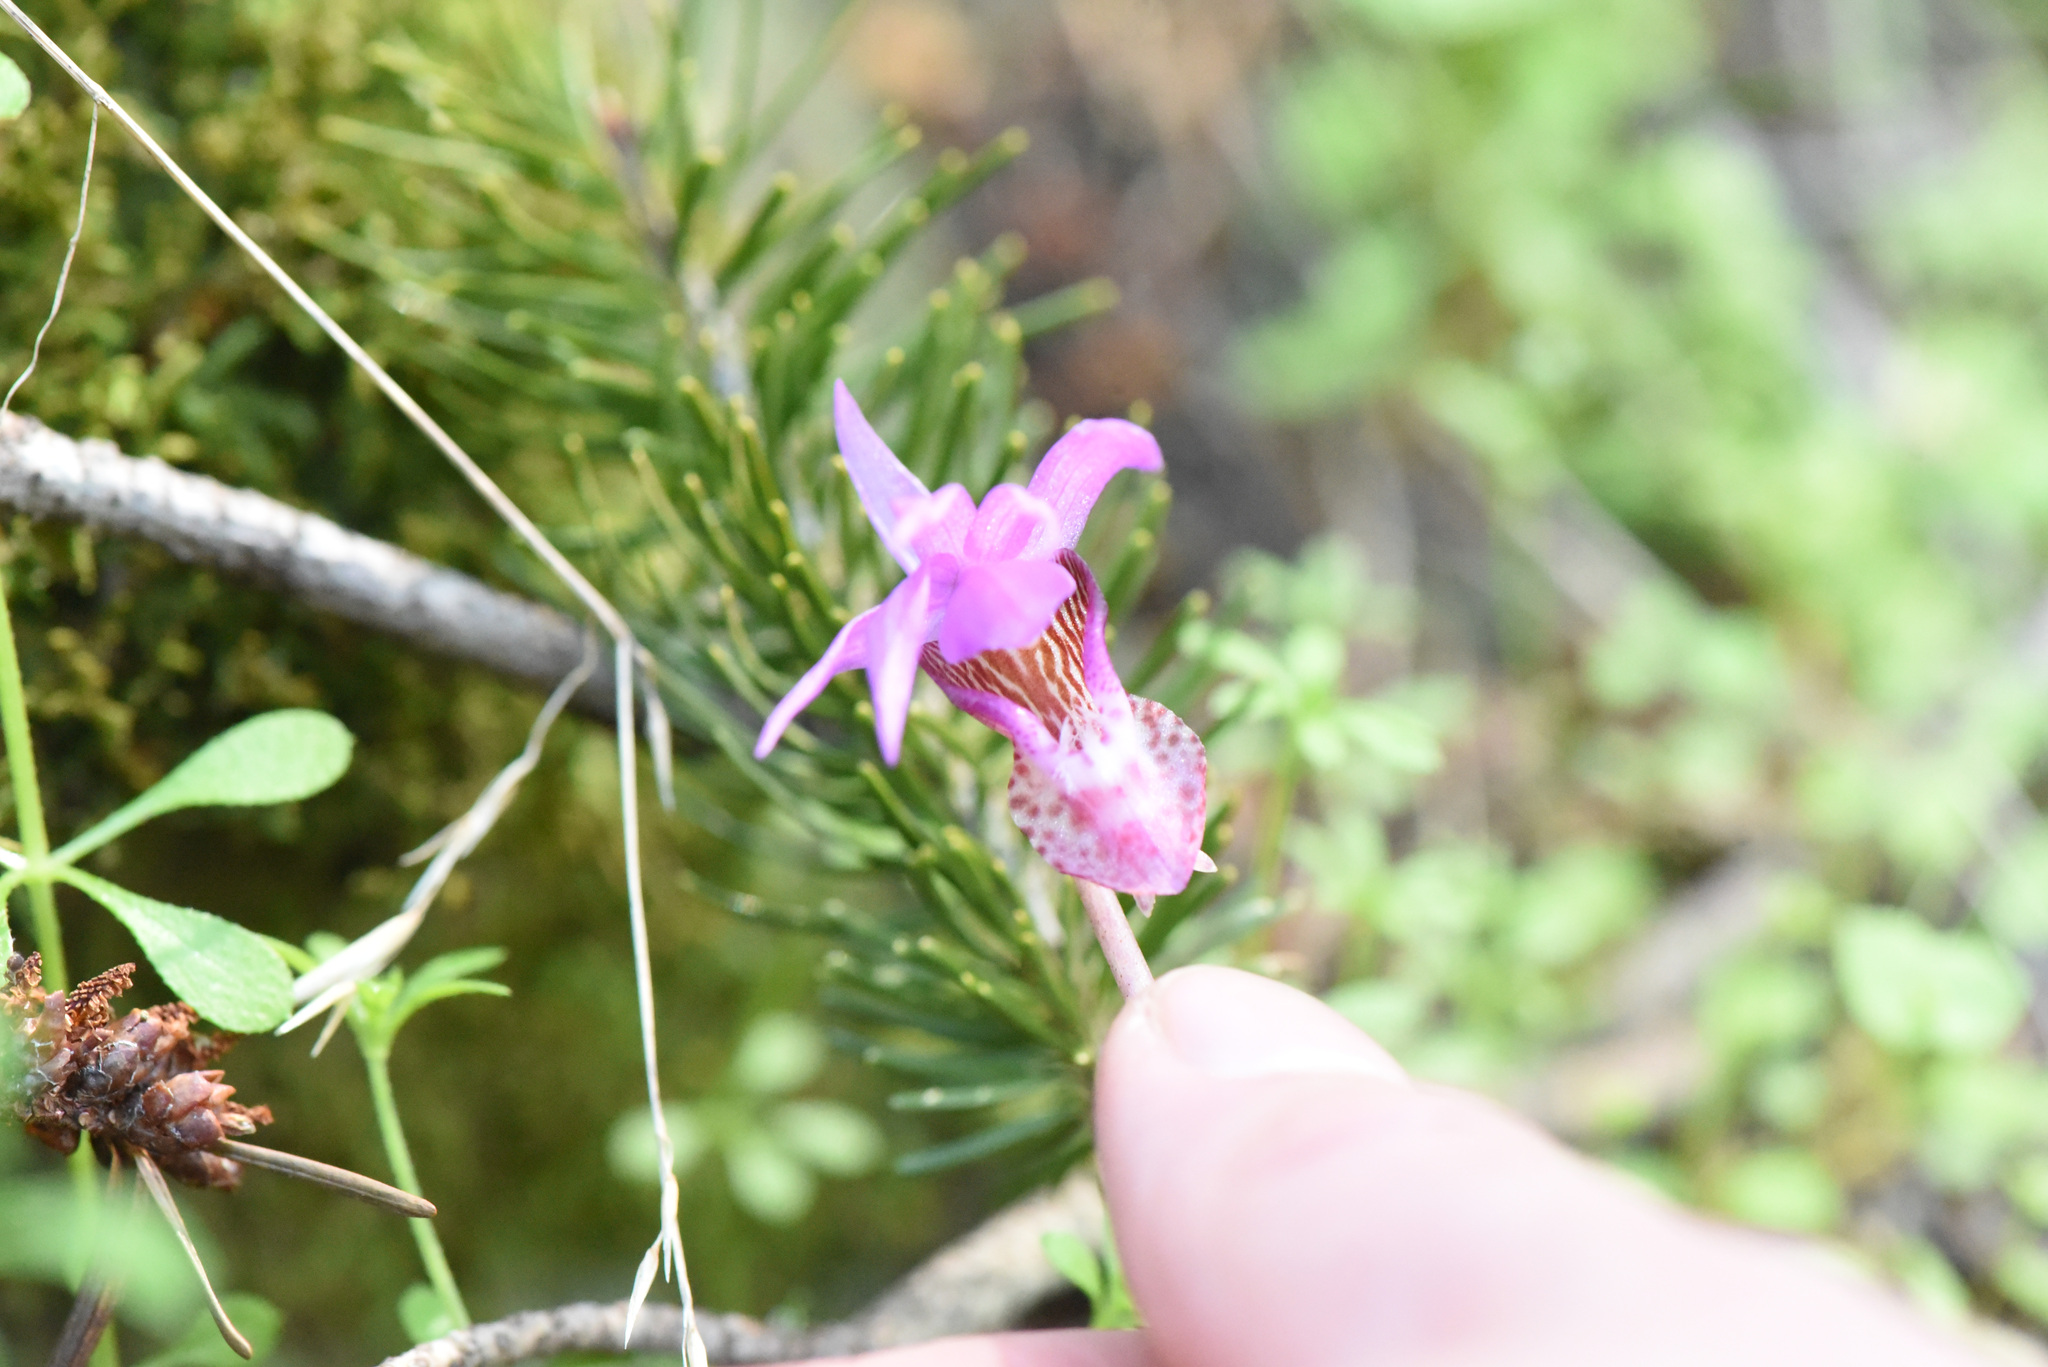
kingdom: Plantae
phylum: Tracheophyta
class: Liliopsida
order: Asparagales
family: Orchidaceae
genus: Calypso
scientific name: Calypso bulbosa
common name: Calypso
